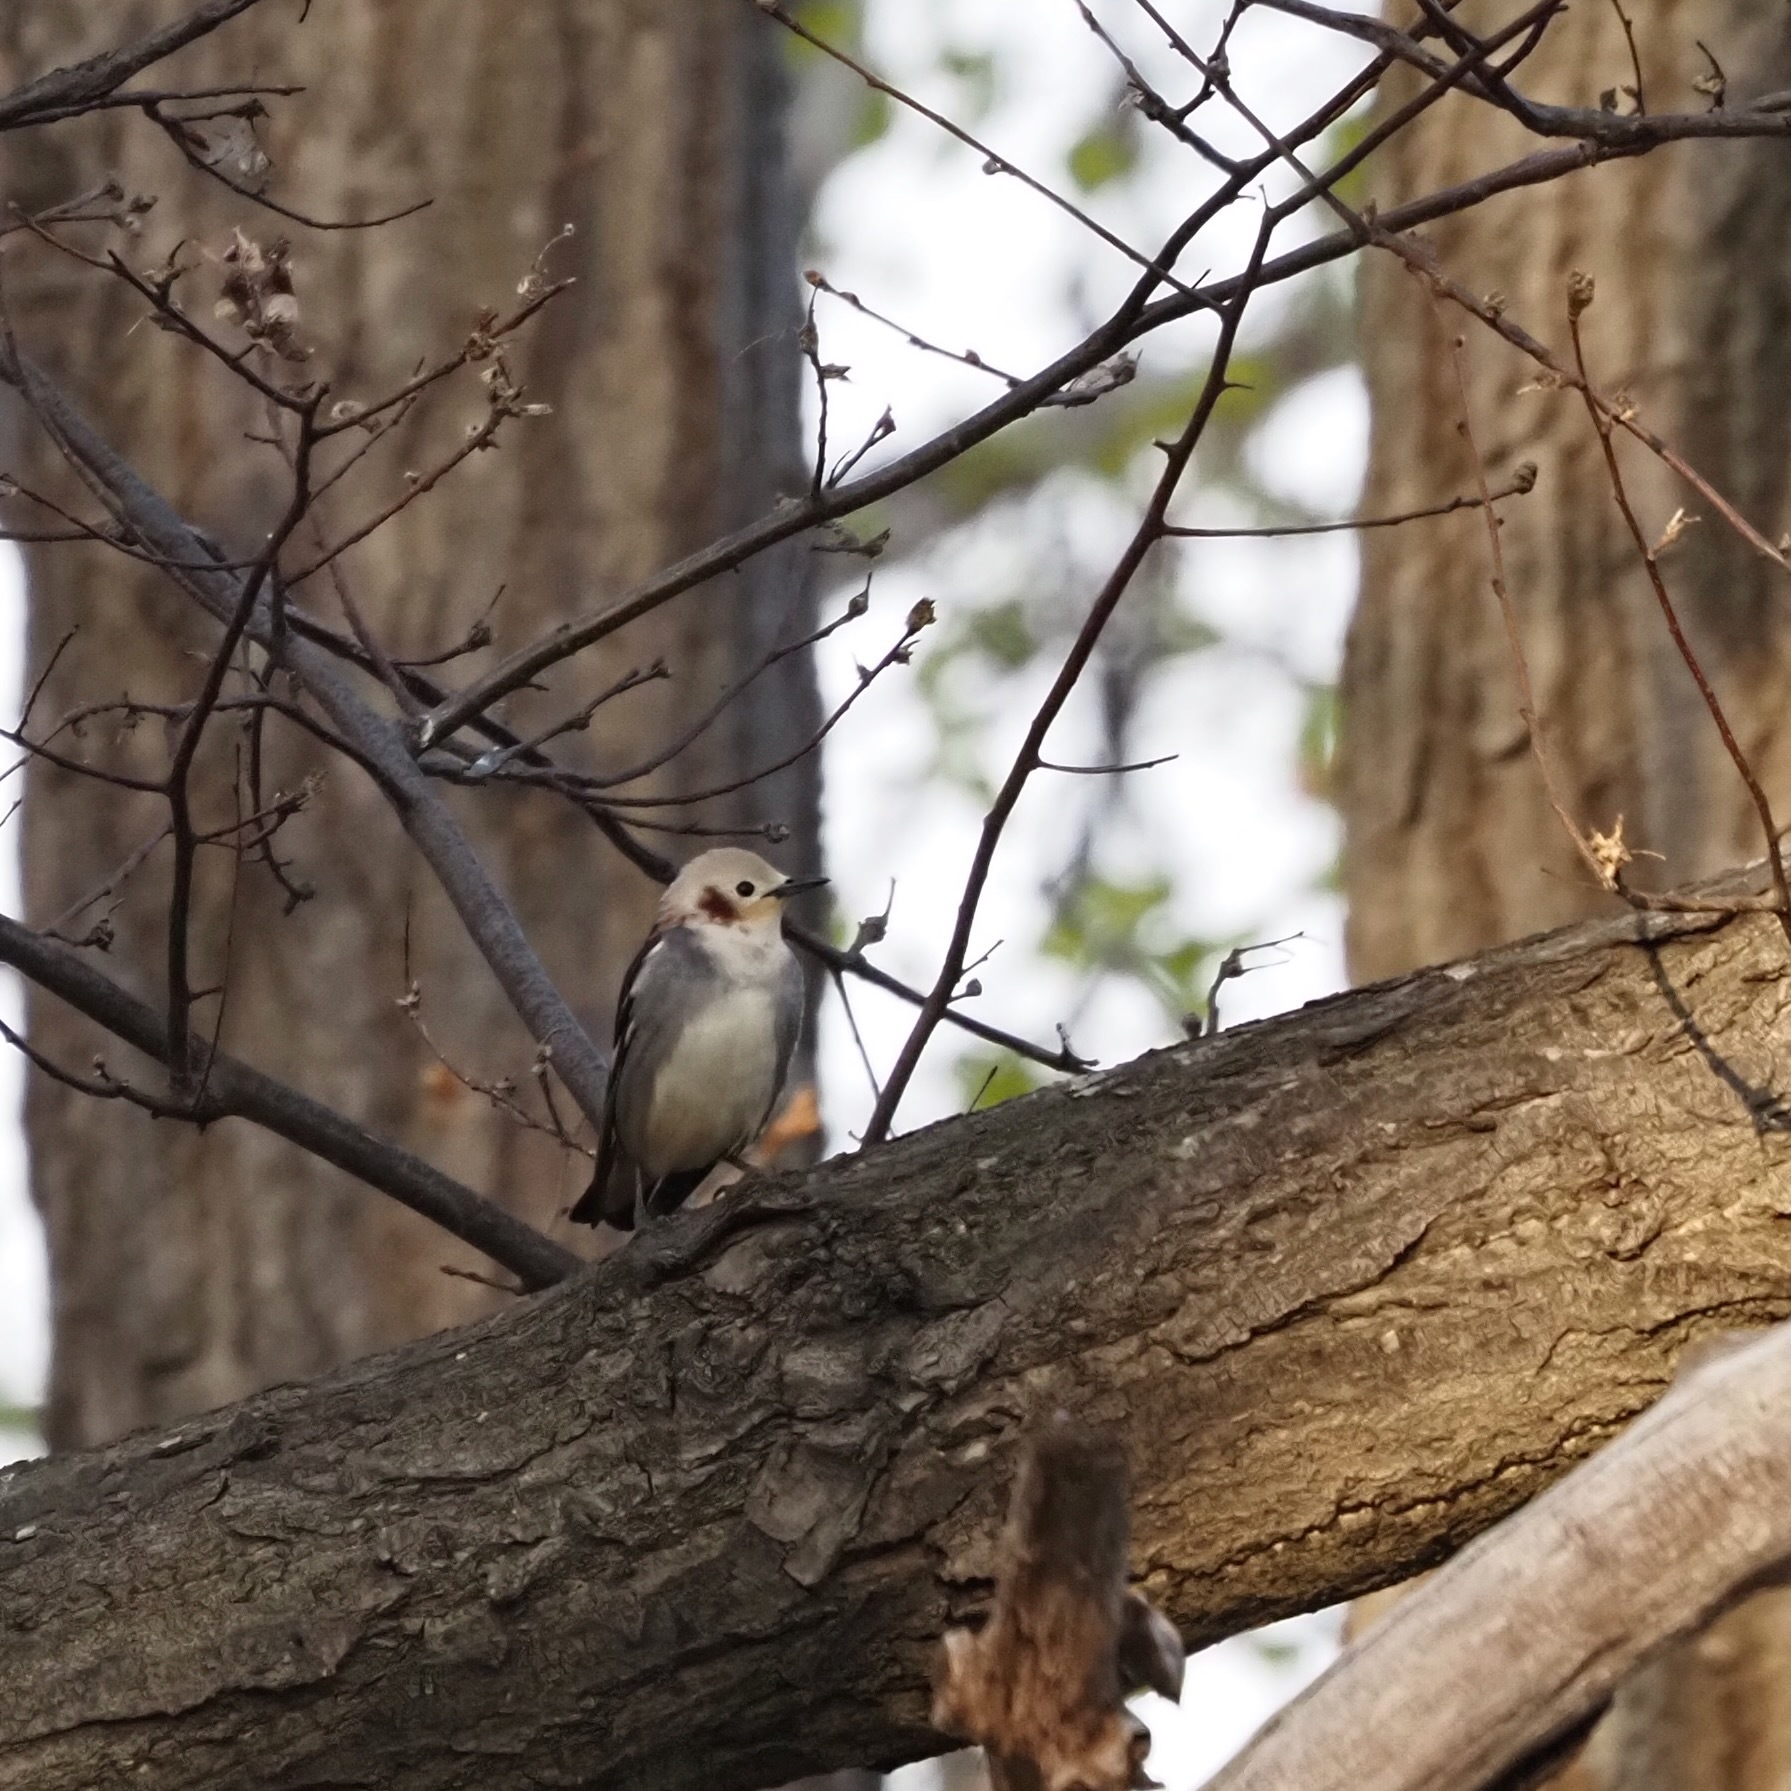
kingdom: Animalia
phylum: Chordata
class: Aves
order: Passeriformes
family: Sturnidae
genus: Agropsar
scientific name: Agropsar philippensis
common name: Chestnut-cheeked starling
